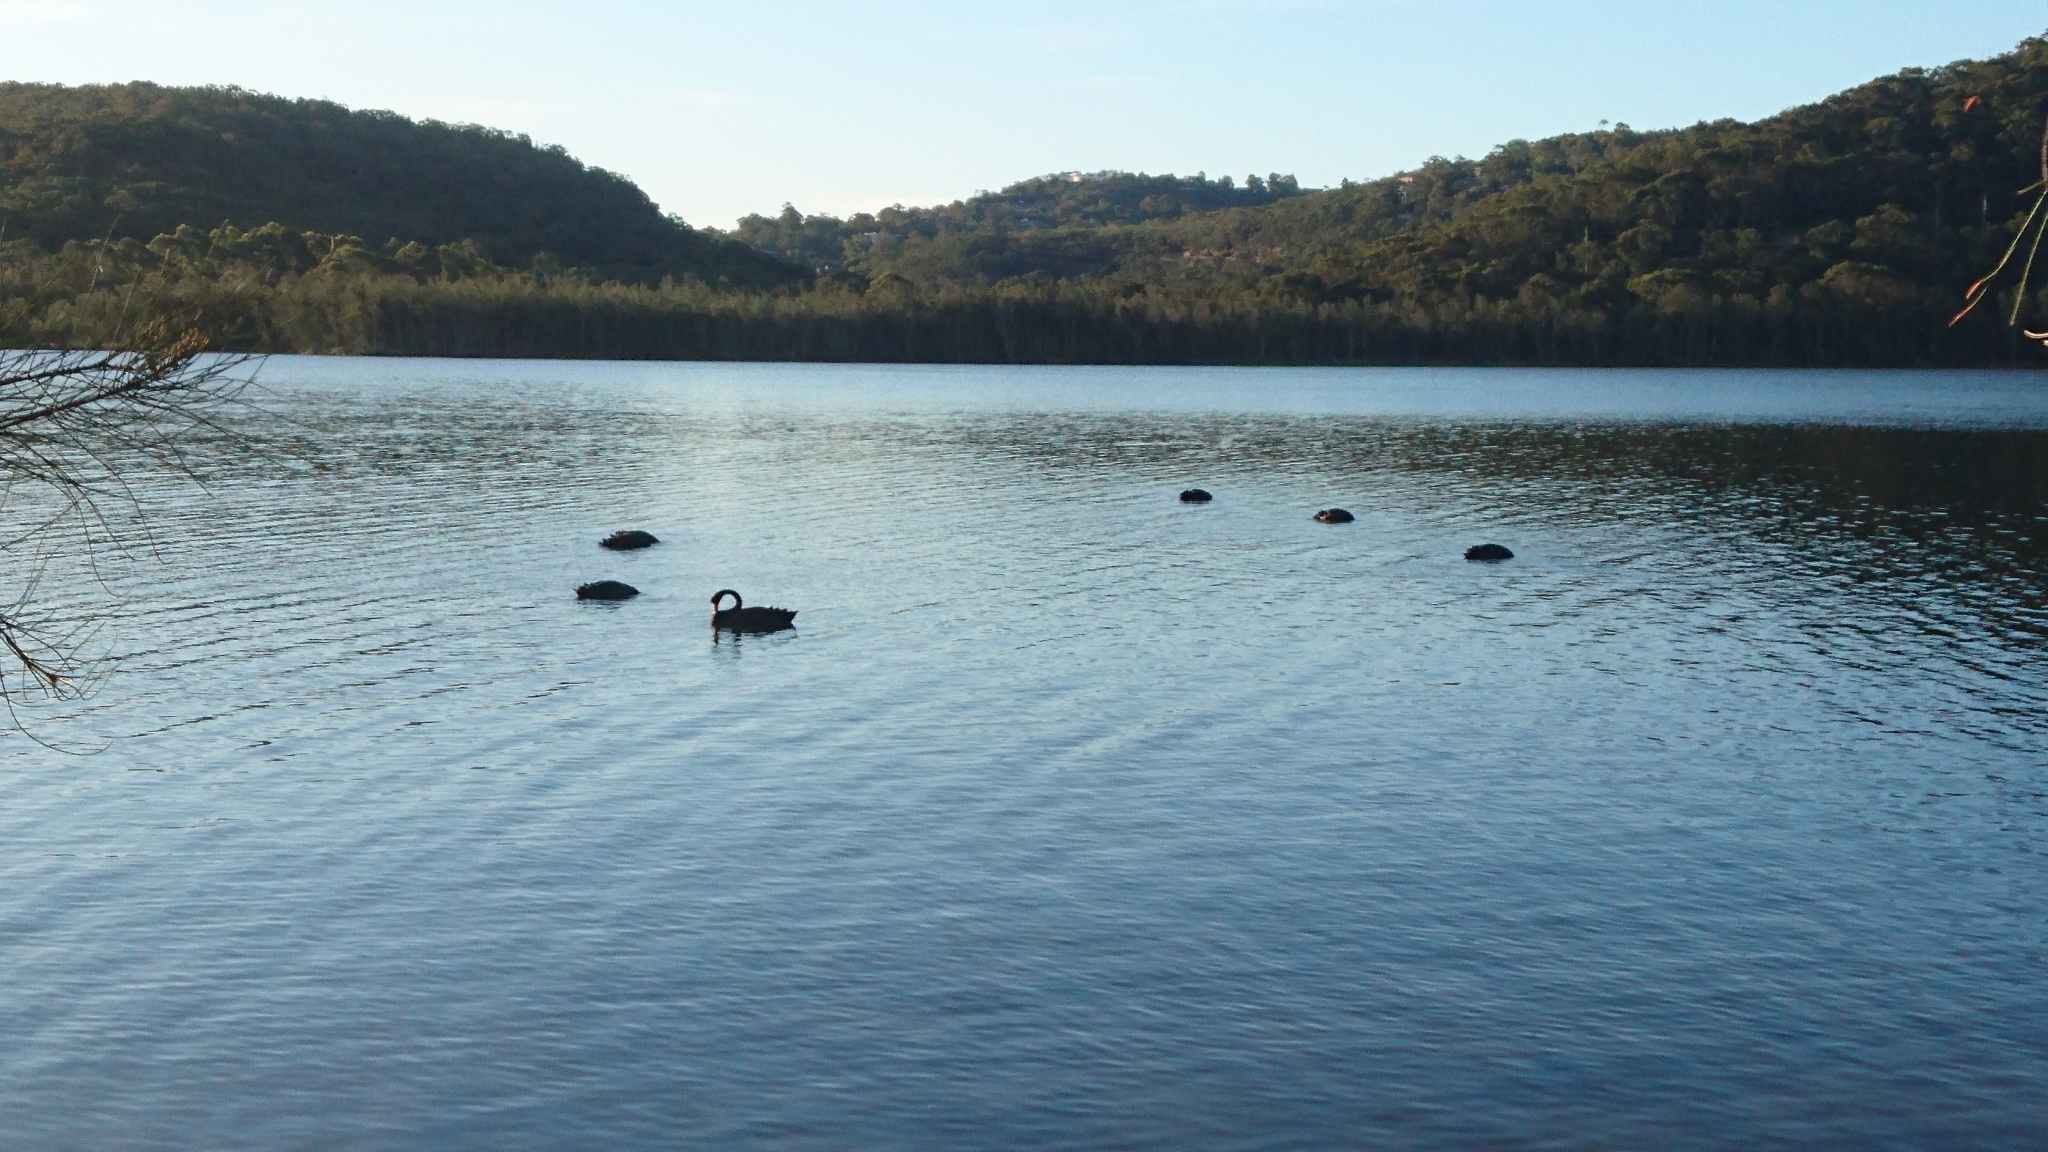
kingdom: Animalia
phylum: Chordata
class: Aves
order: Anseriformes
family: Anatidae
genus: Cygnus
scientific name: Cygnus atratus
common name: Black swan
